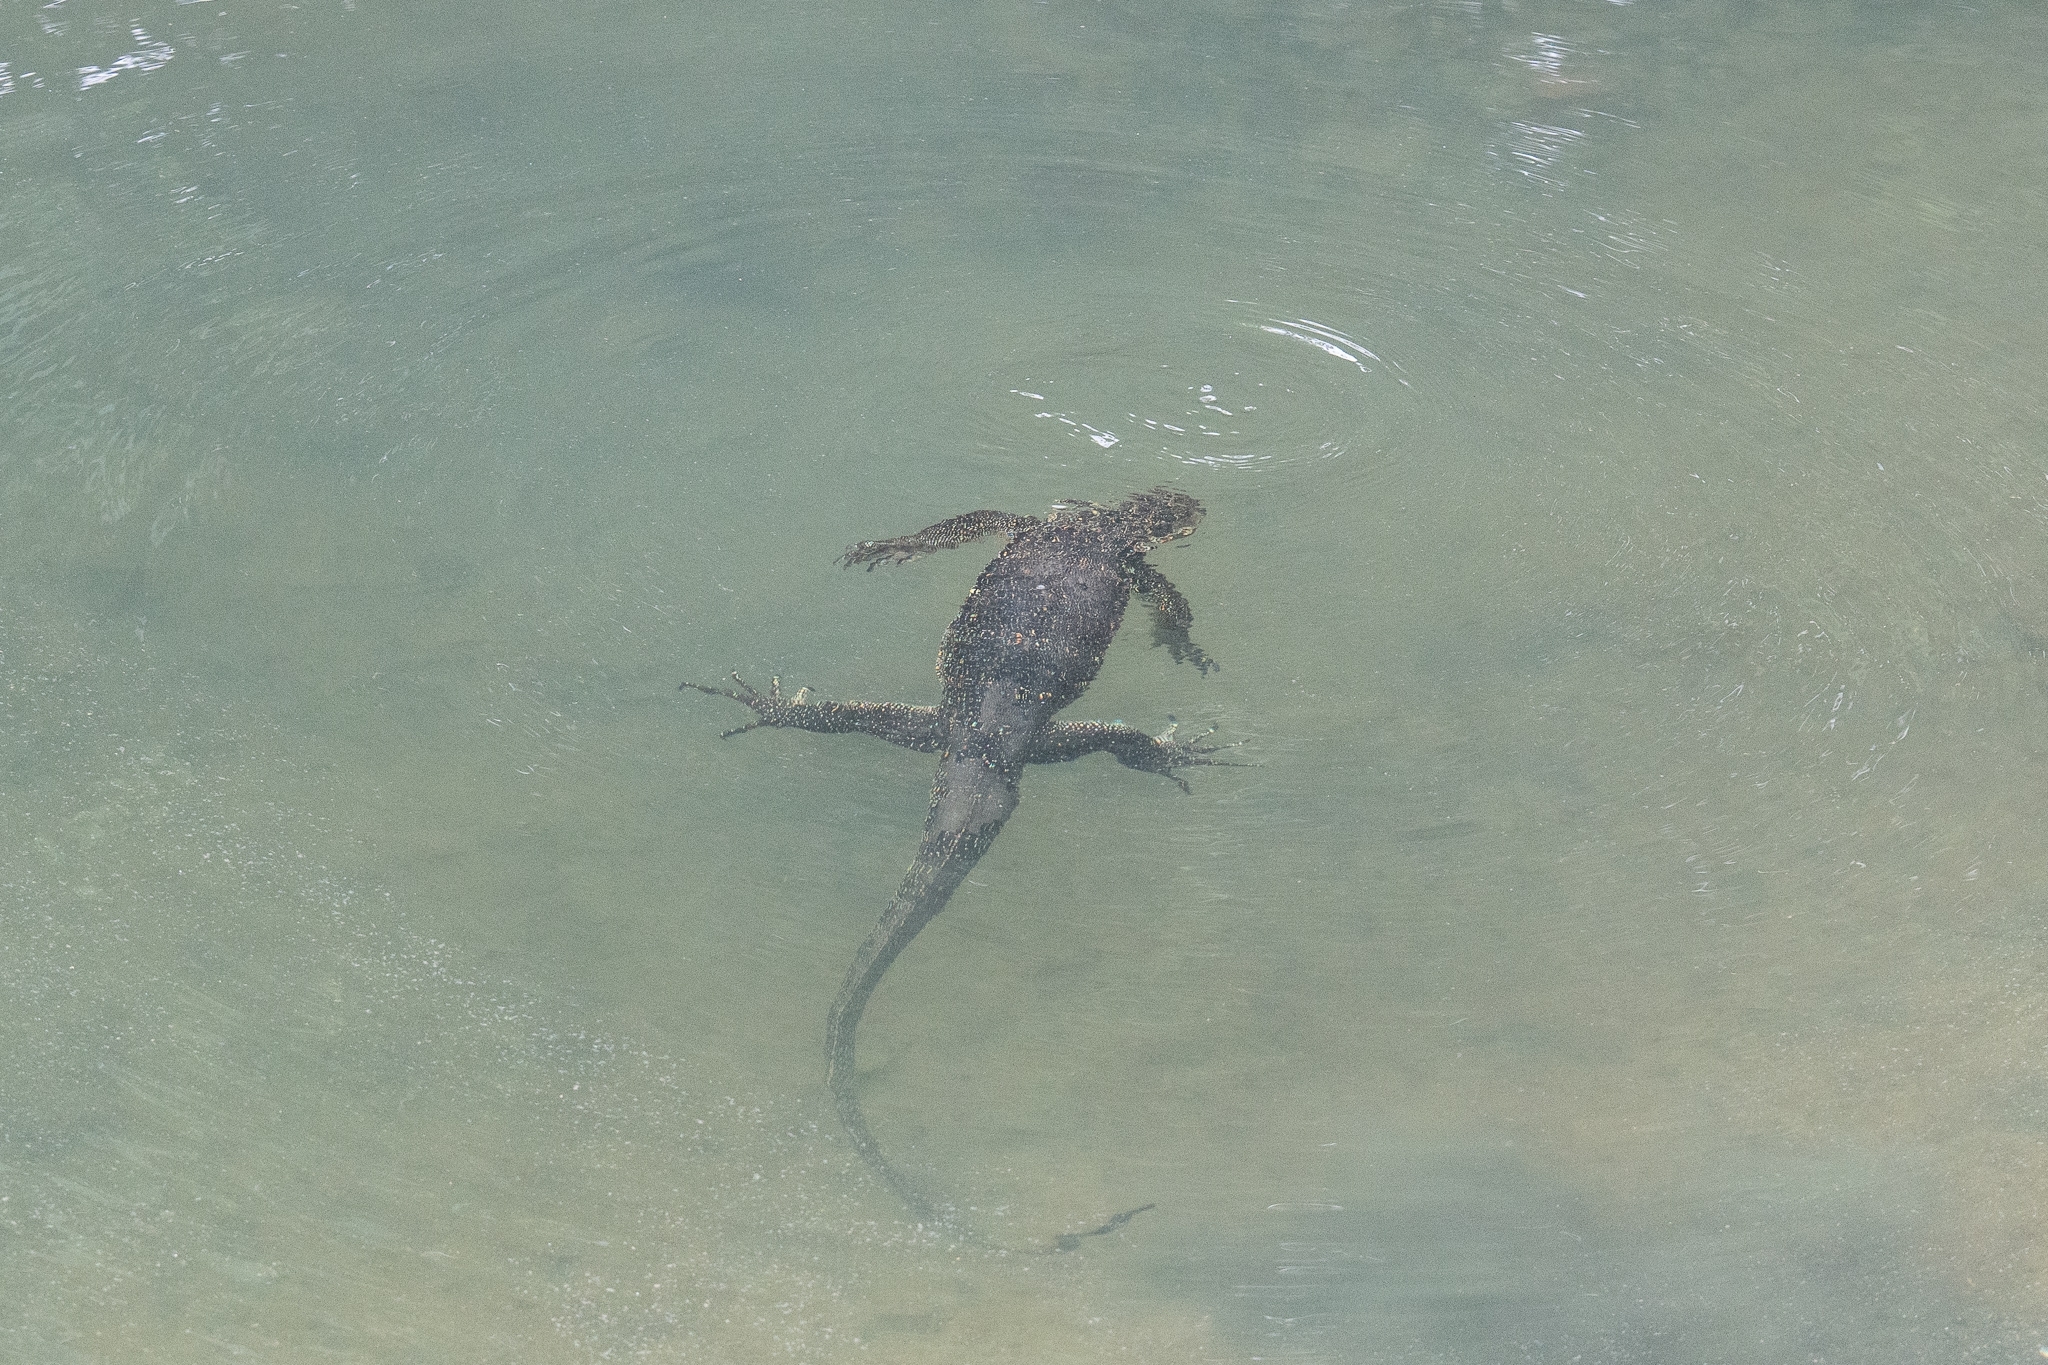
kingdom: Animalia
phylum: Chordata
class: Squamata
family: Varanidae
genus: Varanus
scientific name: Varanus salvator
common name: Common water monitor
